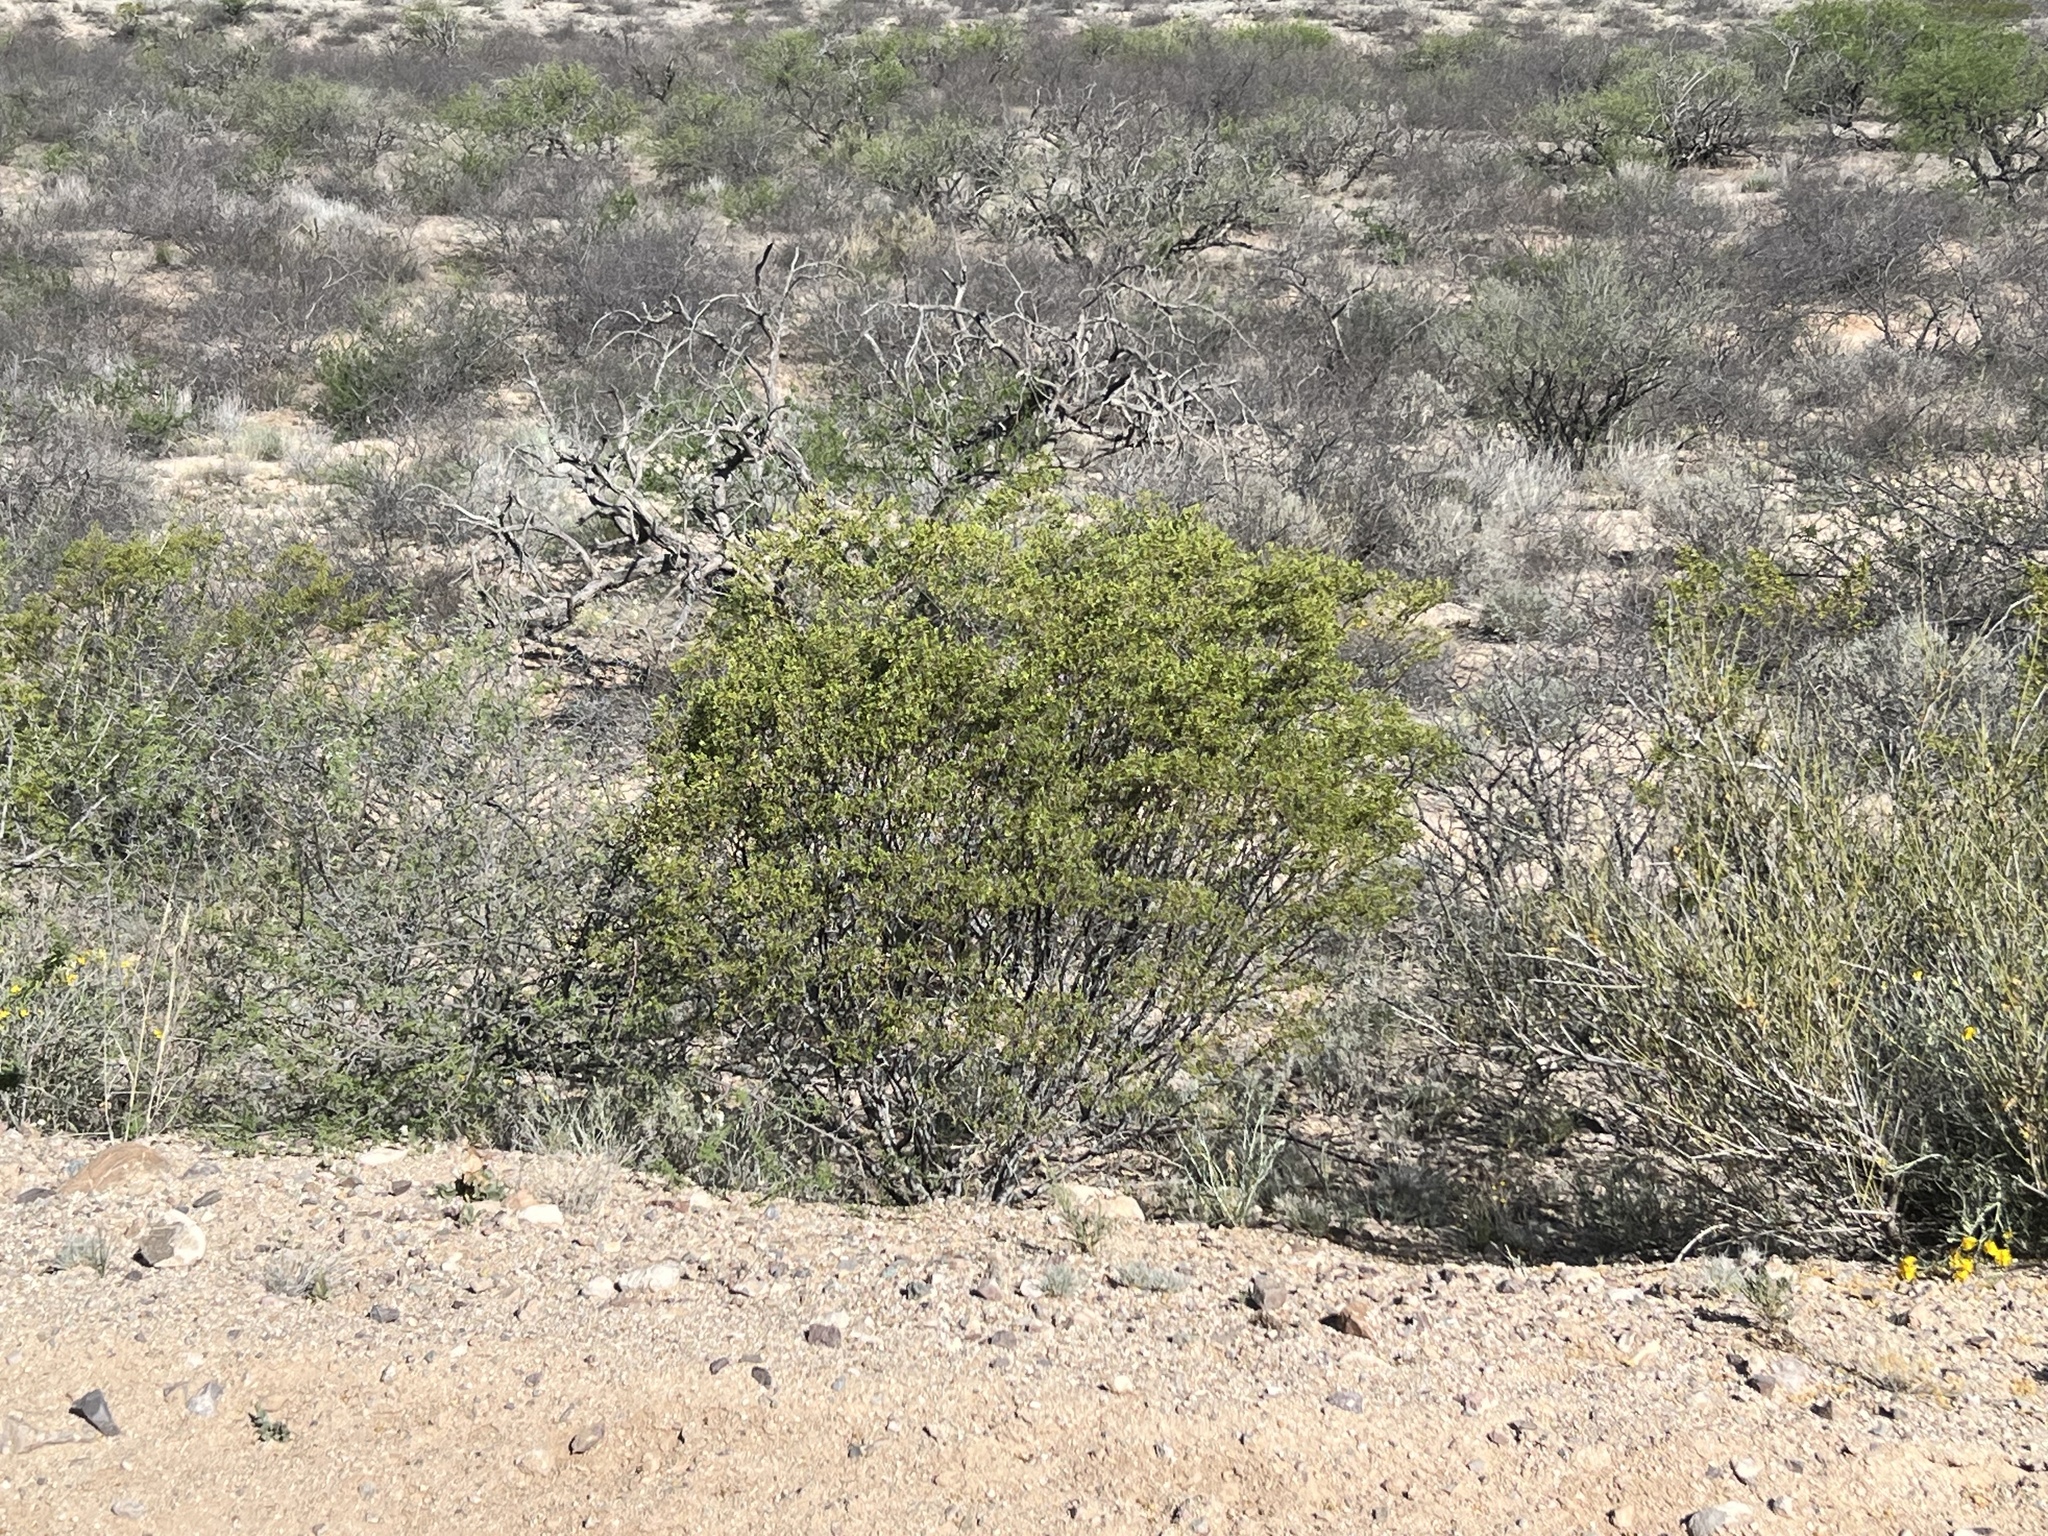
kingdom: Plantae
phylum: Tracheophyta
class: Magnoliopsida
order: Zygophyllales
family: Zygophyllaceae
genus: Larrea
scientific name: Larrea tridentata
